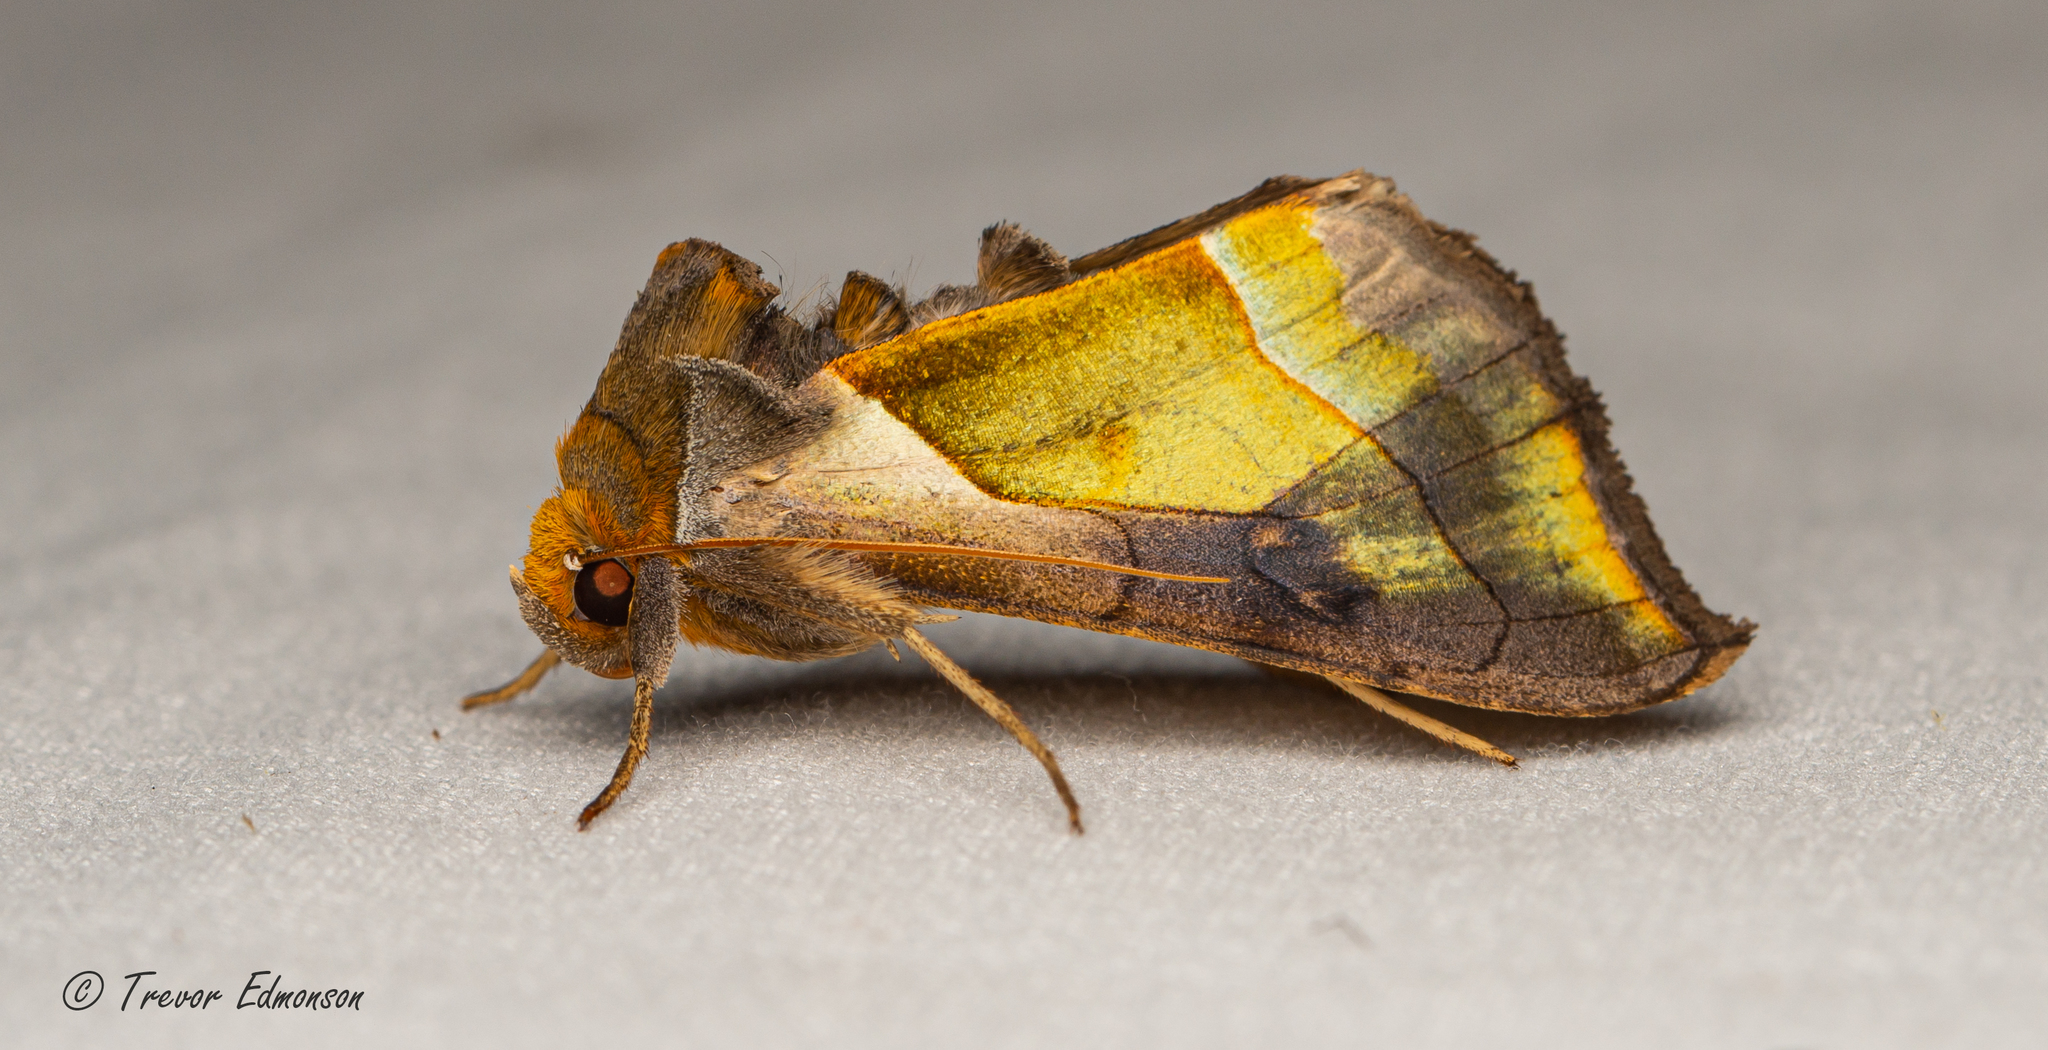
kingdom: Animalia
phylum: Arthropoda
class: Insecta
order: Lepidoptera
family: Noctuidae
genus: Diachrysia
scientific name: Diachrysia balluca
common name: Green-patched looper moth
